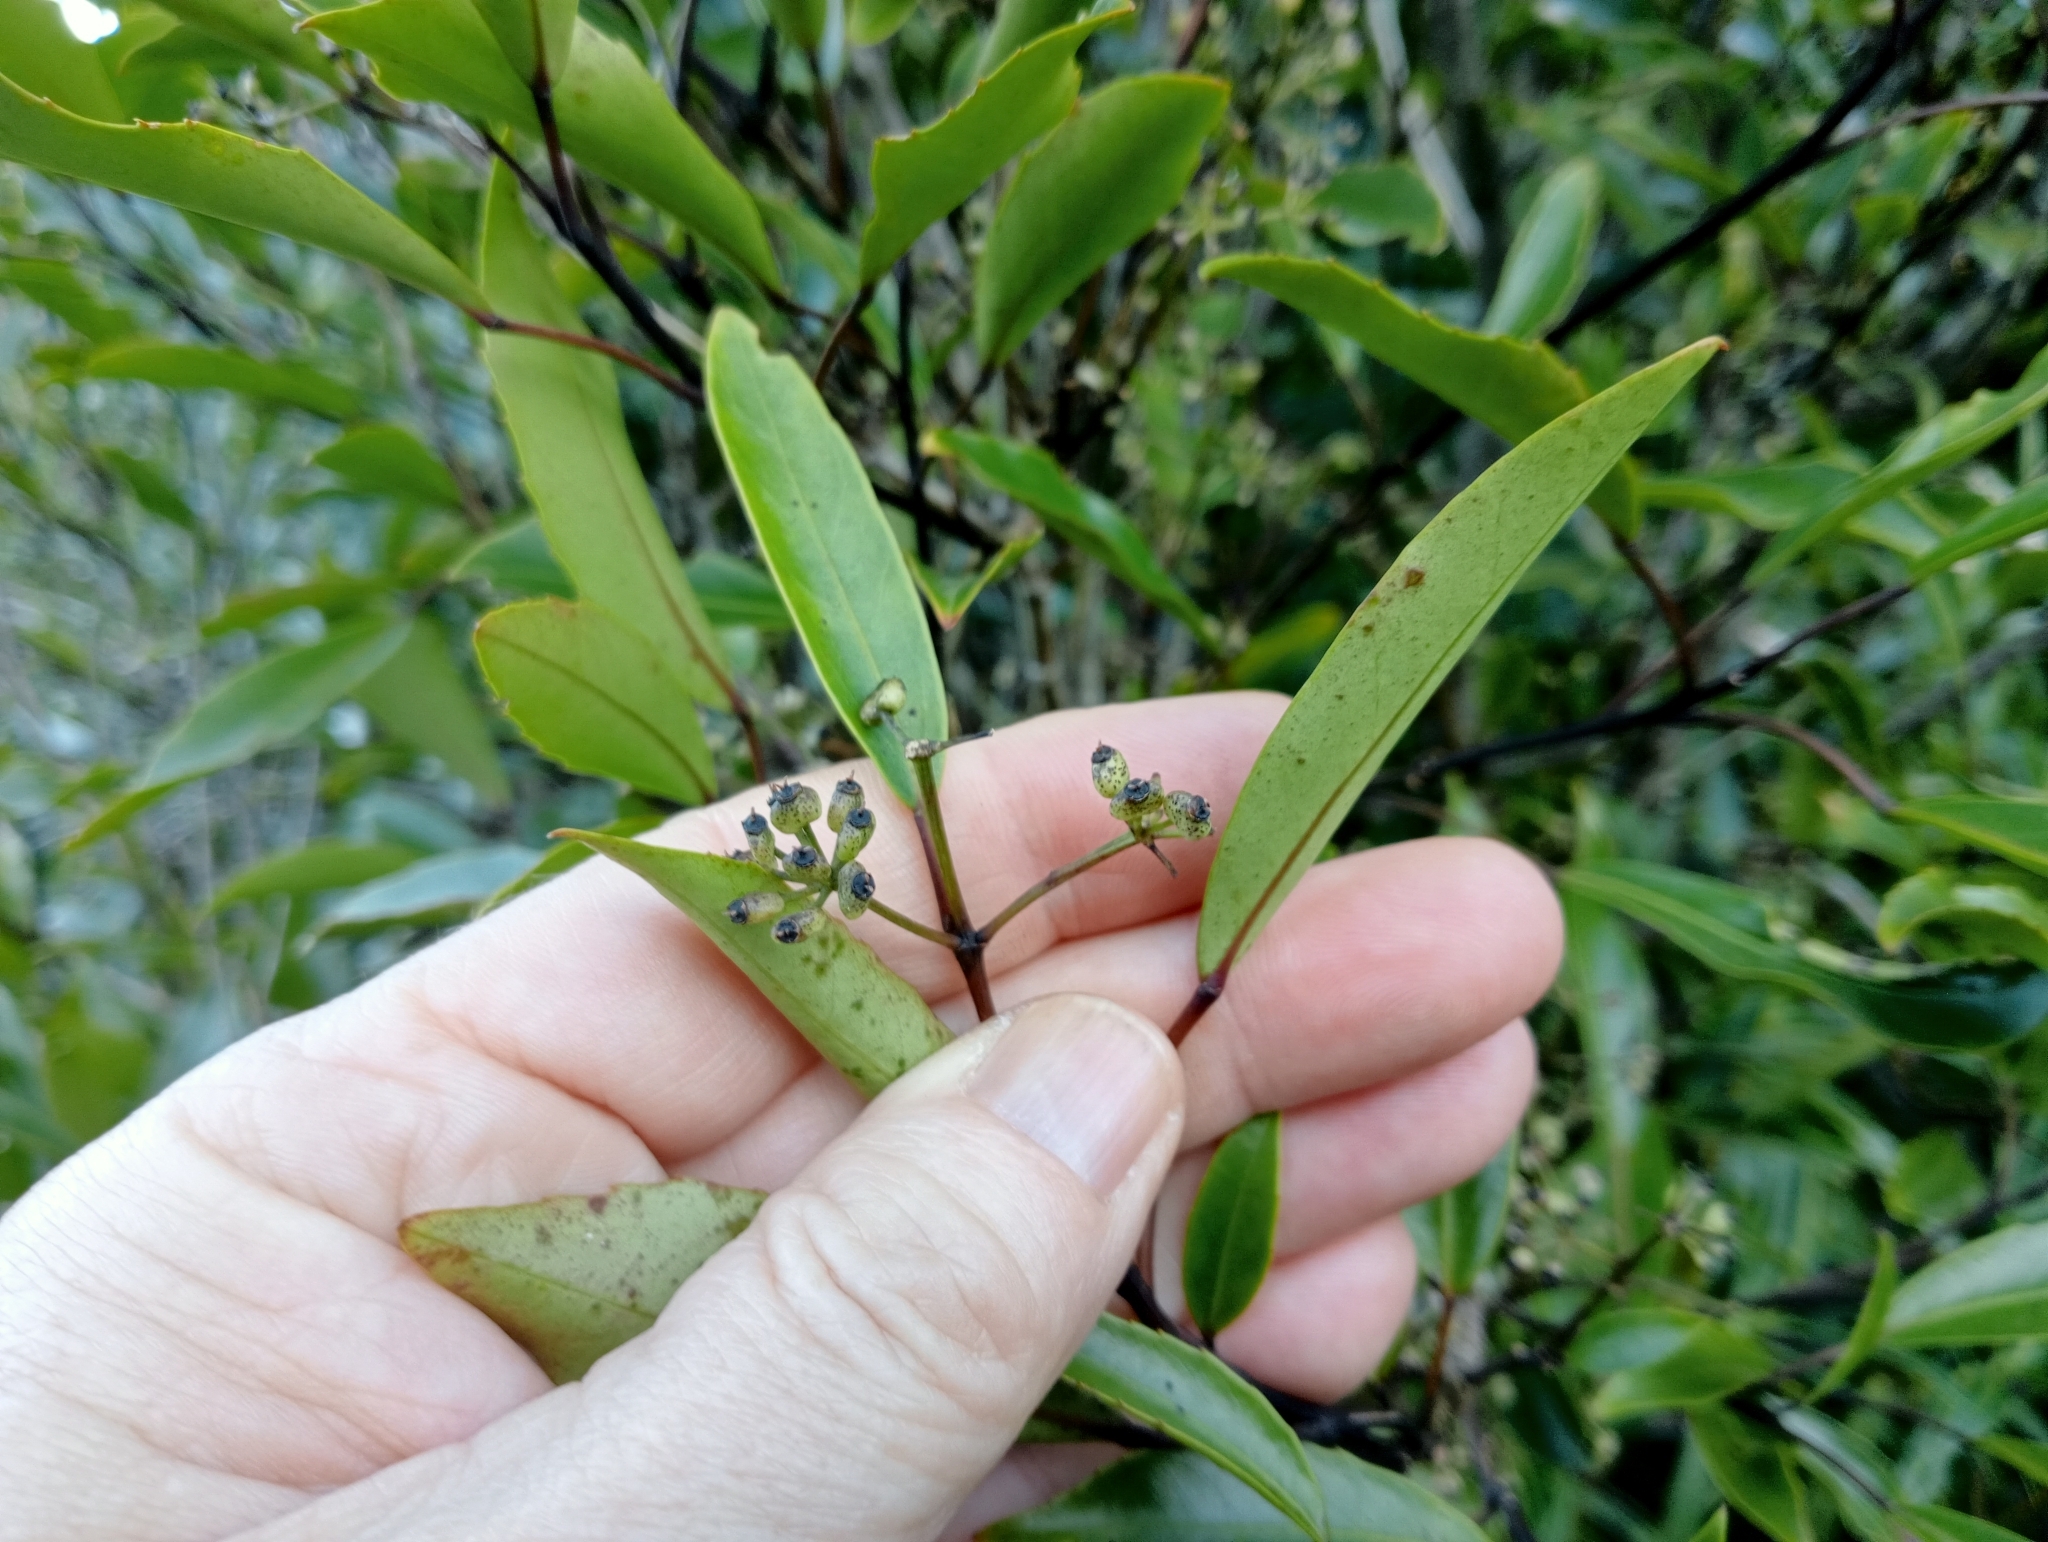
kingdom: Plantae
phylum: Tracheophyta
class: Magnoliopsida
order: Apiales
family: Araliaceae
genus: Raukaua
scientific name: Raukaua simplex
